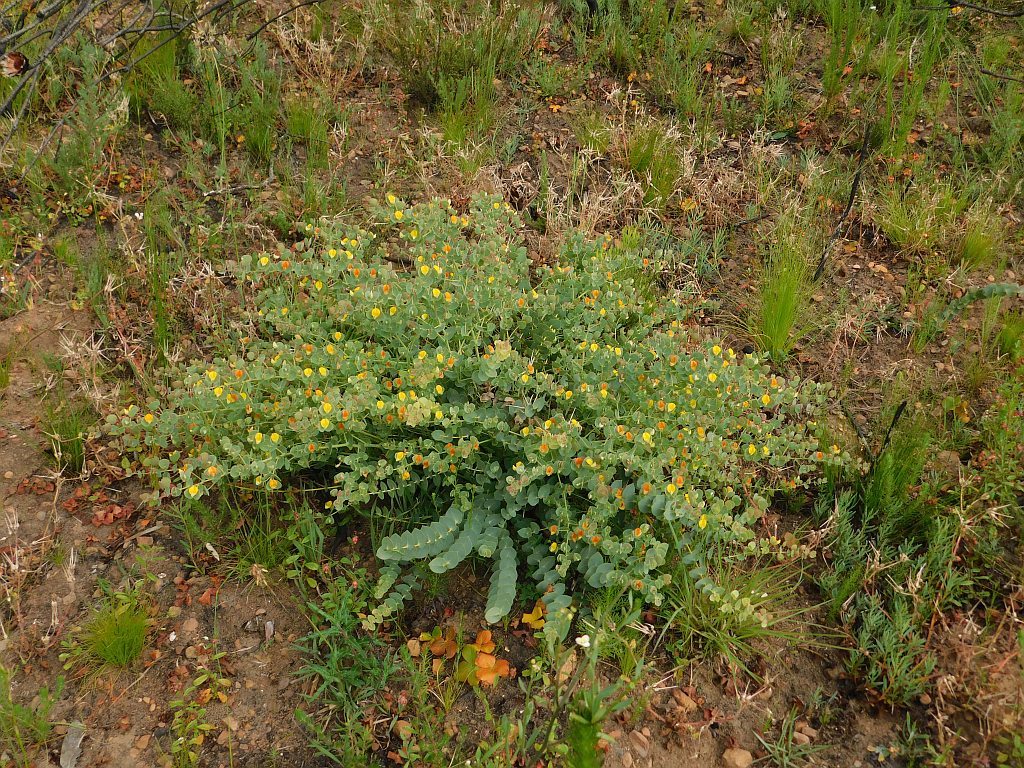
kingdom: Plantae
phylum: Tracheophyta
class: Magnoliopsida
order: Fabales
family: Fabaceae
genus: Rafnia
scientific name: Rafnia acuminata
